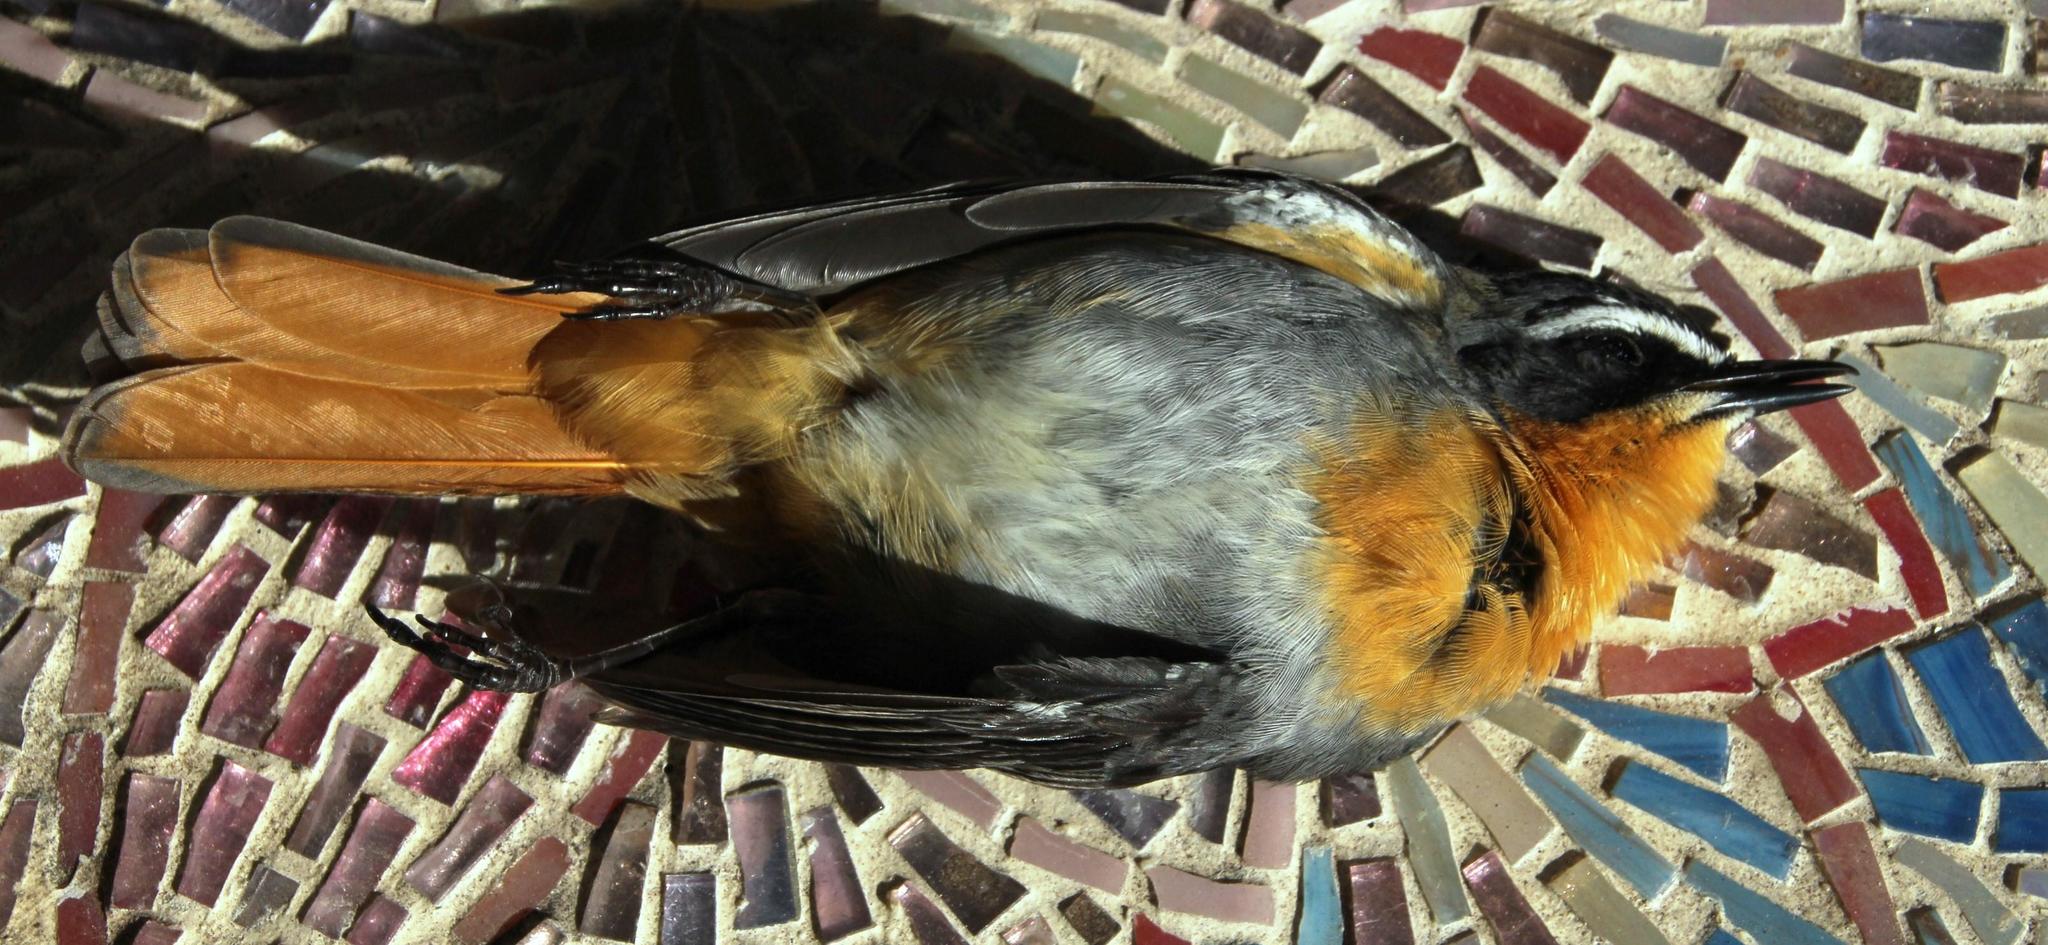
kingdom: Animalia
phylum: Chordata
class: Aves
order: Passeriformes
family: Muscicapidae
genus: Cossypha
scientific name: Cossypha caffra
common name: Cape robin-chat
